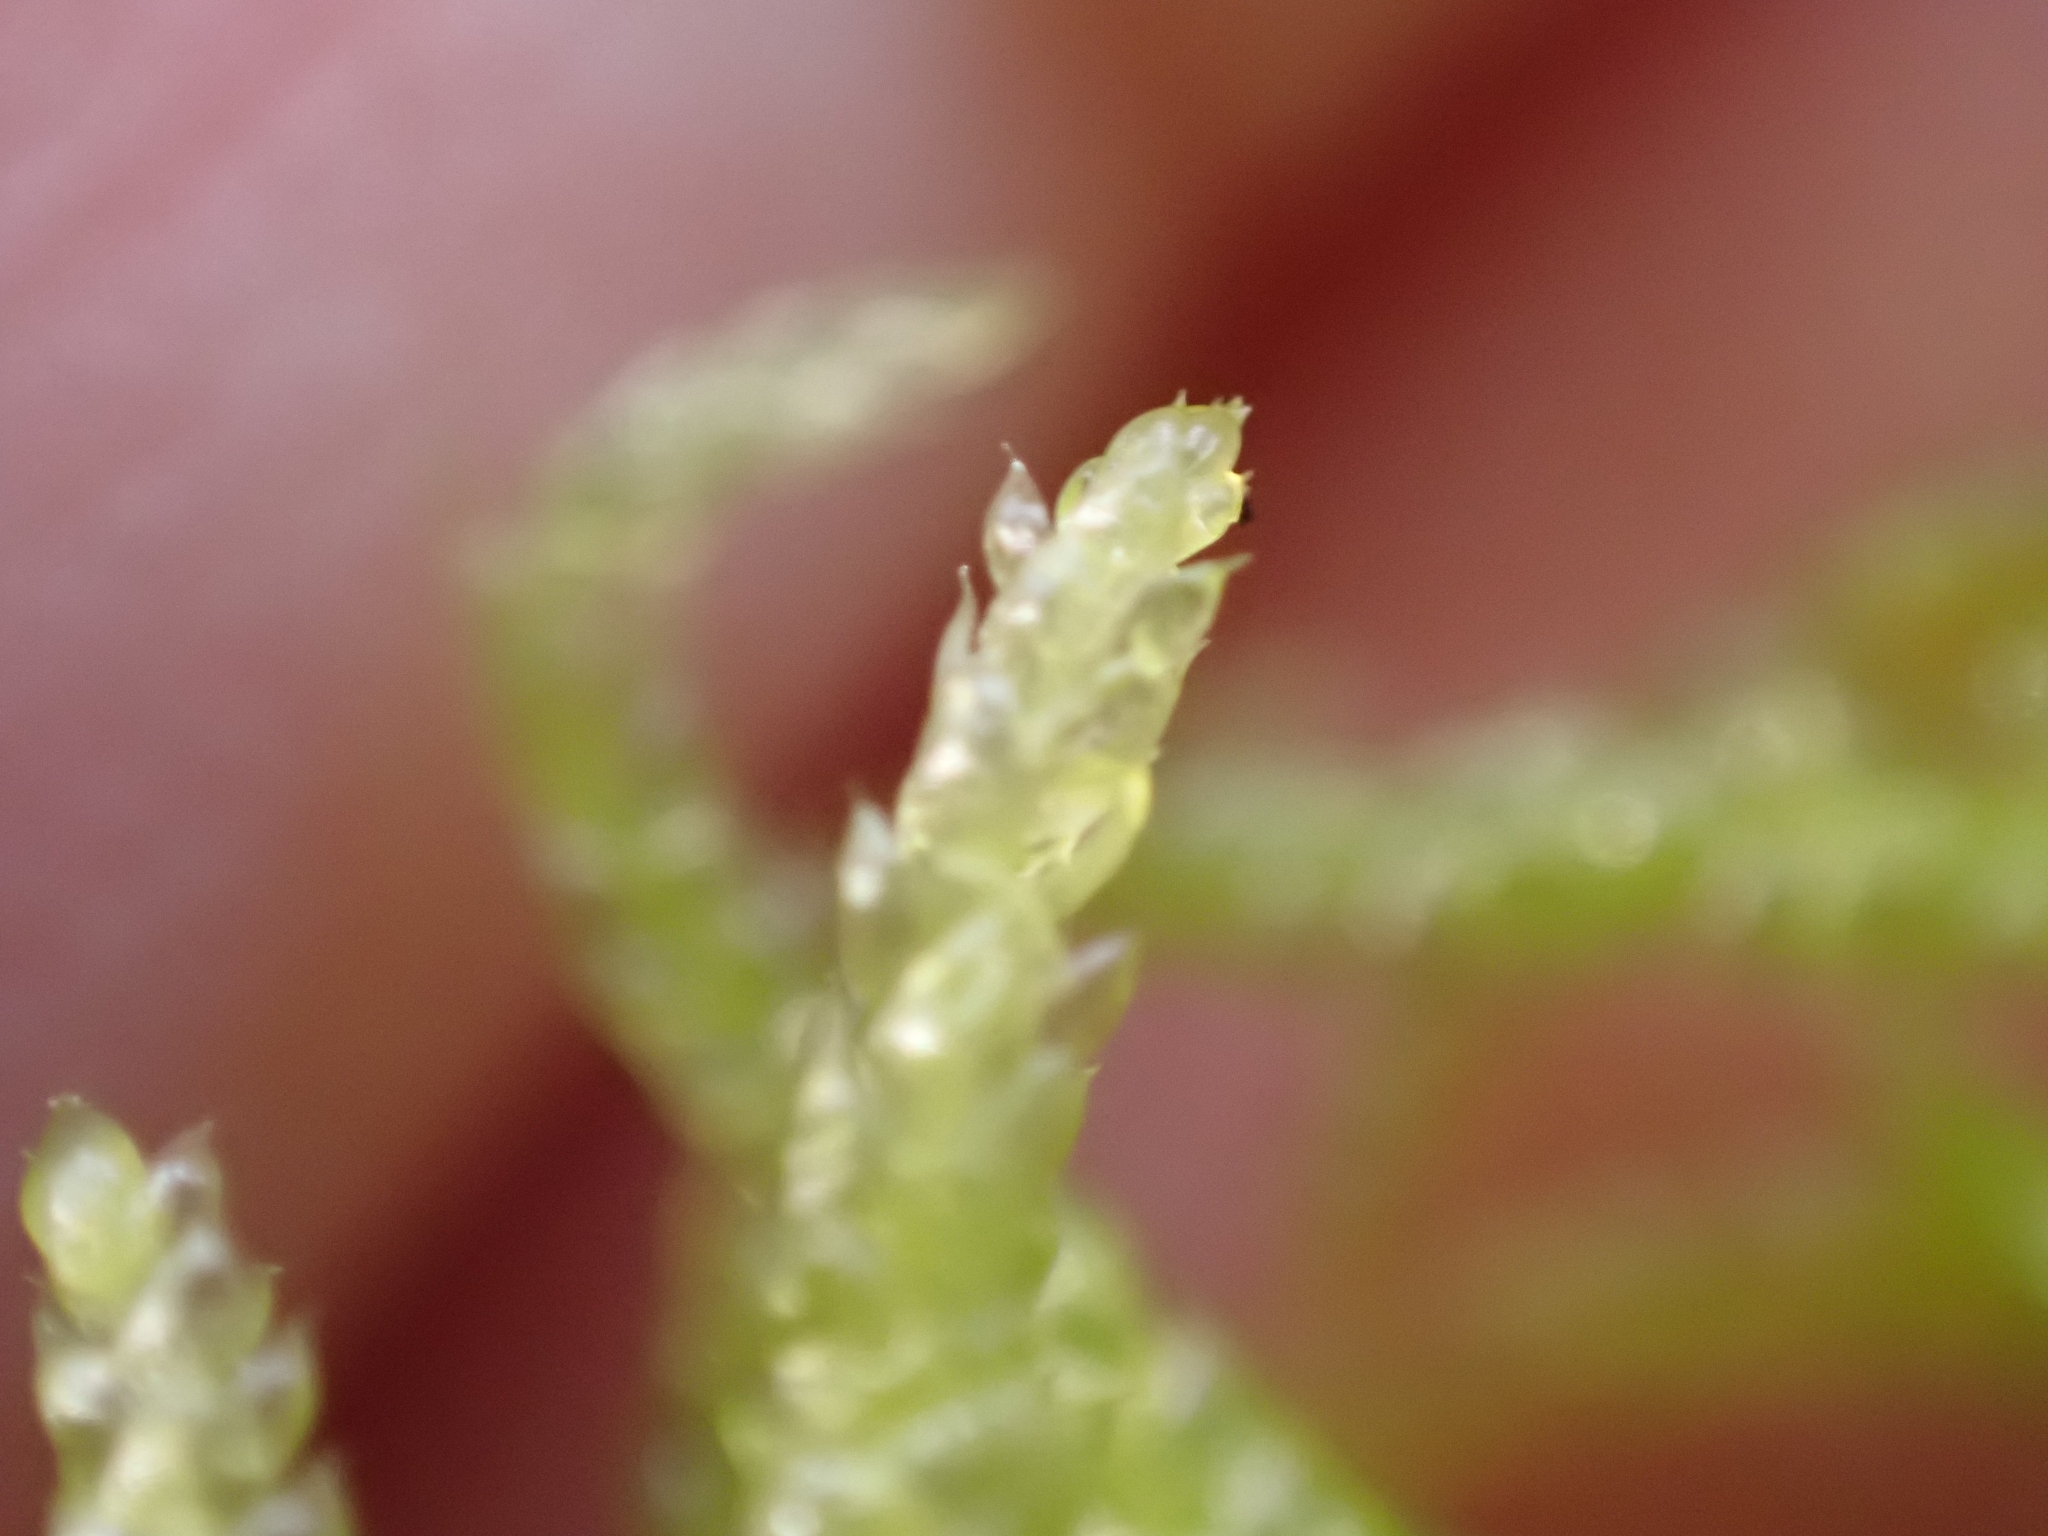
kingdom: Plantae
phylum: Bryophyta
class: Bryopsida
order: Hypnales
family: Brachytheciaceae
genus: Pseudoscleropodium
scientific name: Pseudoscleropodium purum
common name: Neat feather-moss
